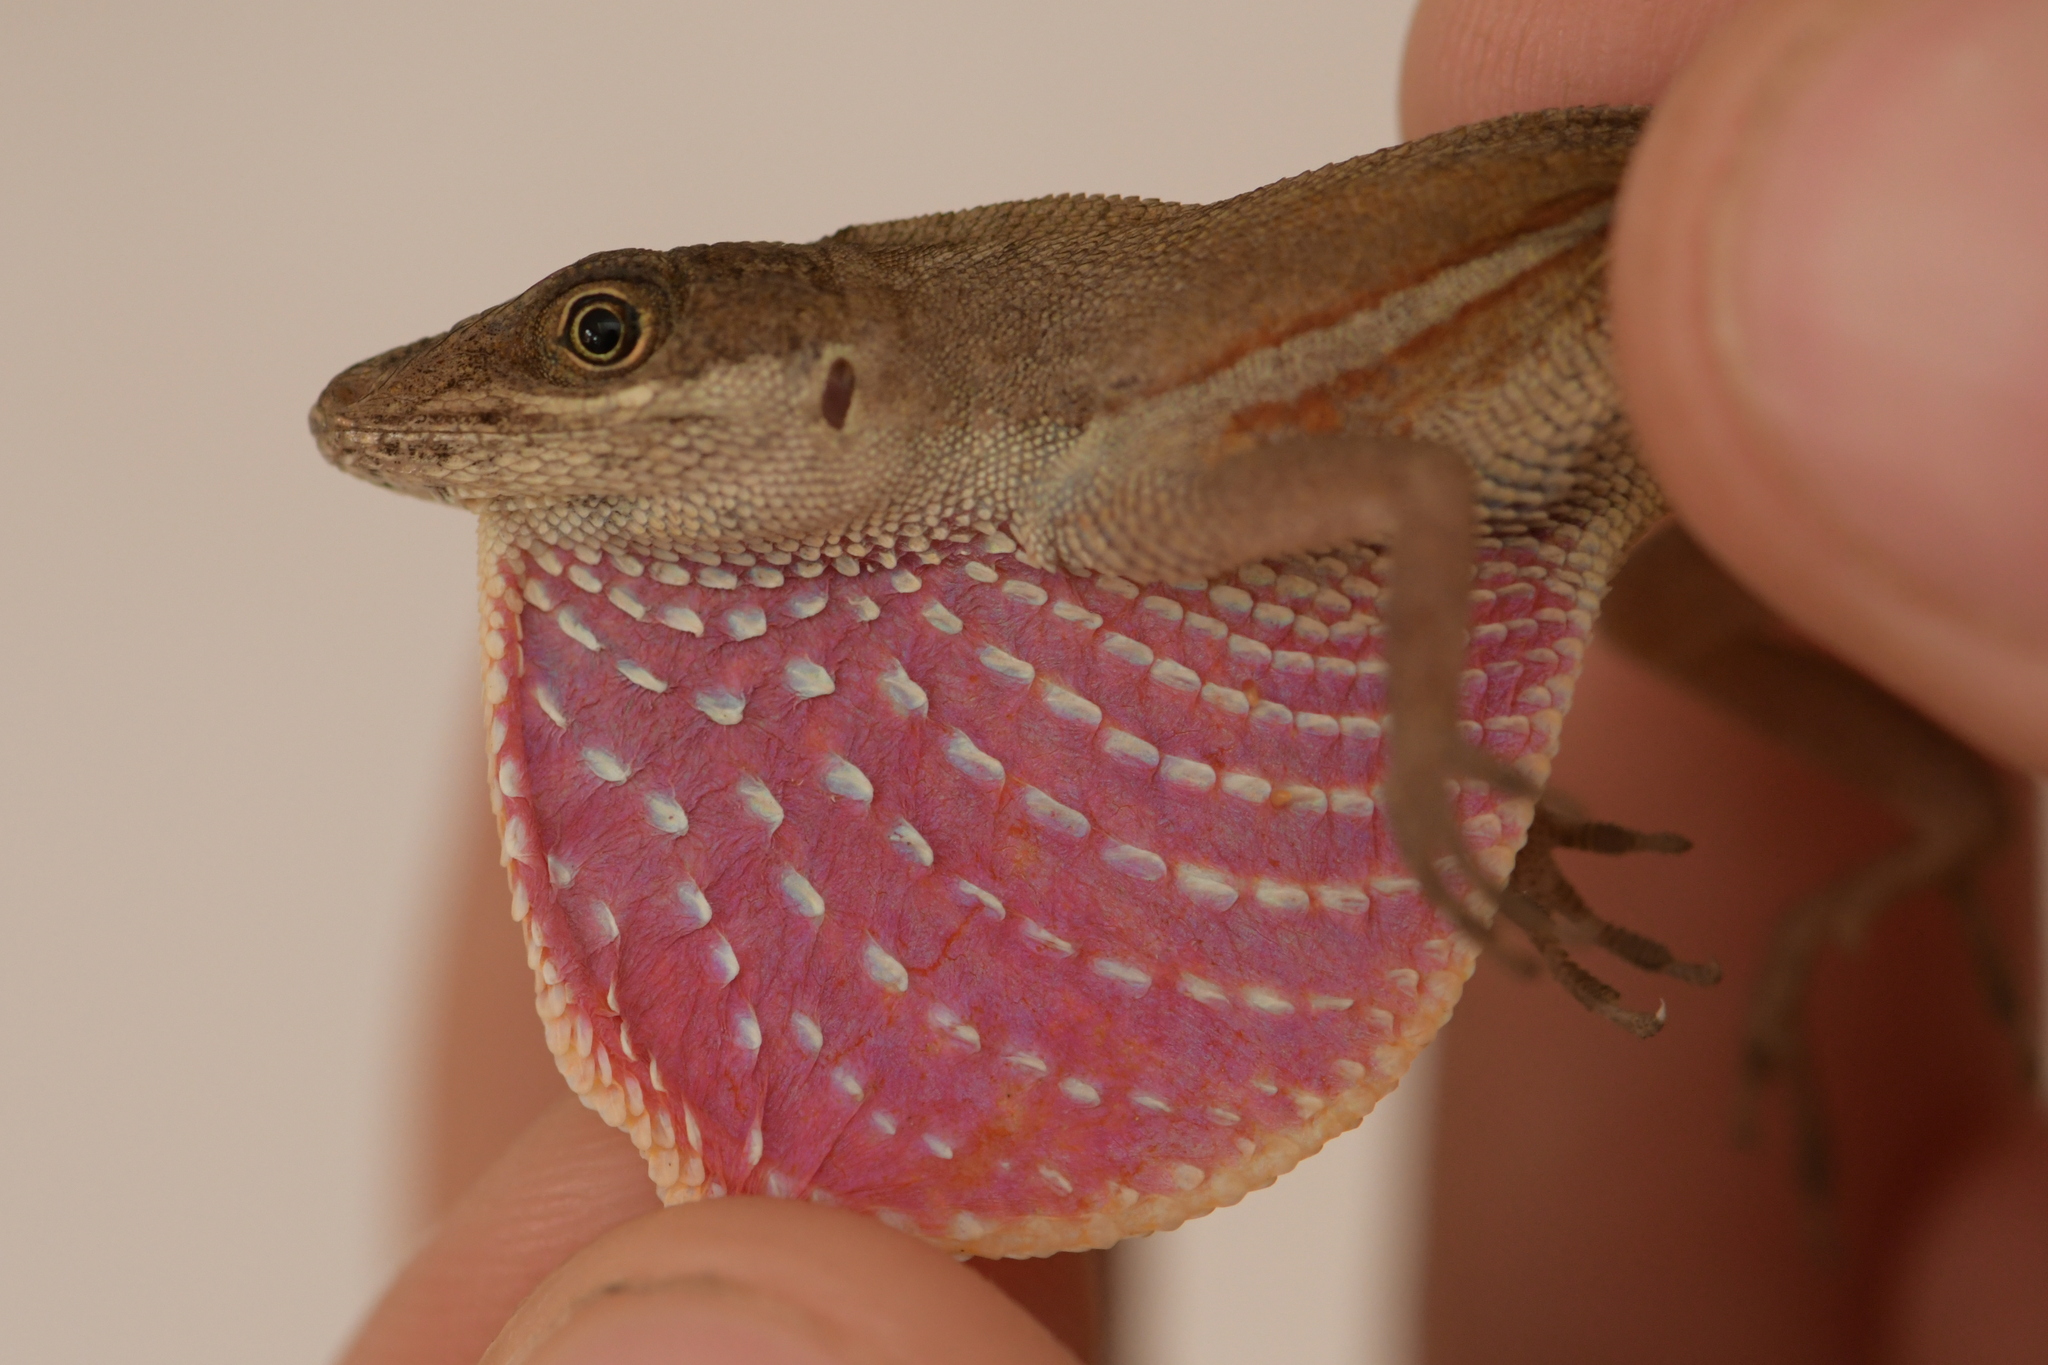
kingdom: Animalia
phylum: Chordata
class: Squamata
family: Dactyloidae
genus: Anolis
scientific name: Anolis nebuloides
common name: False clouded anole
